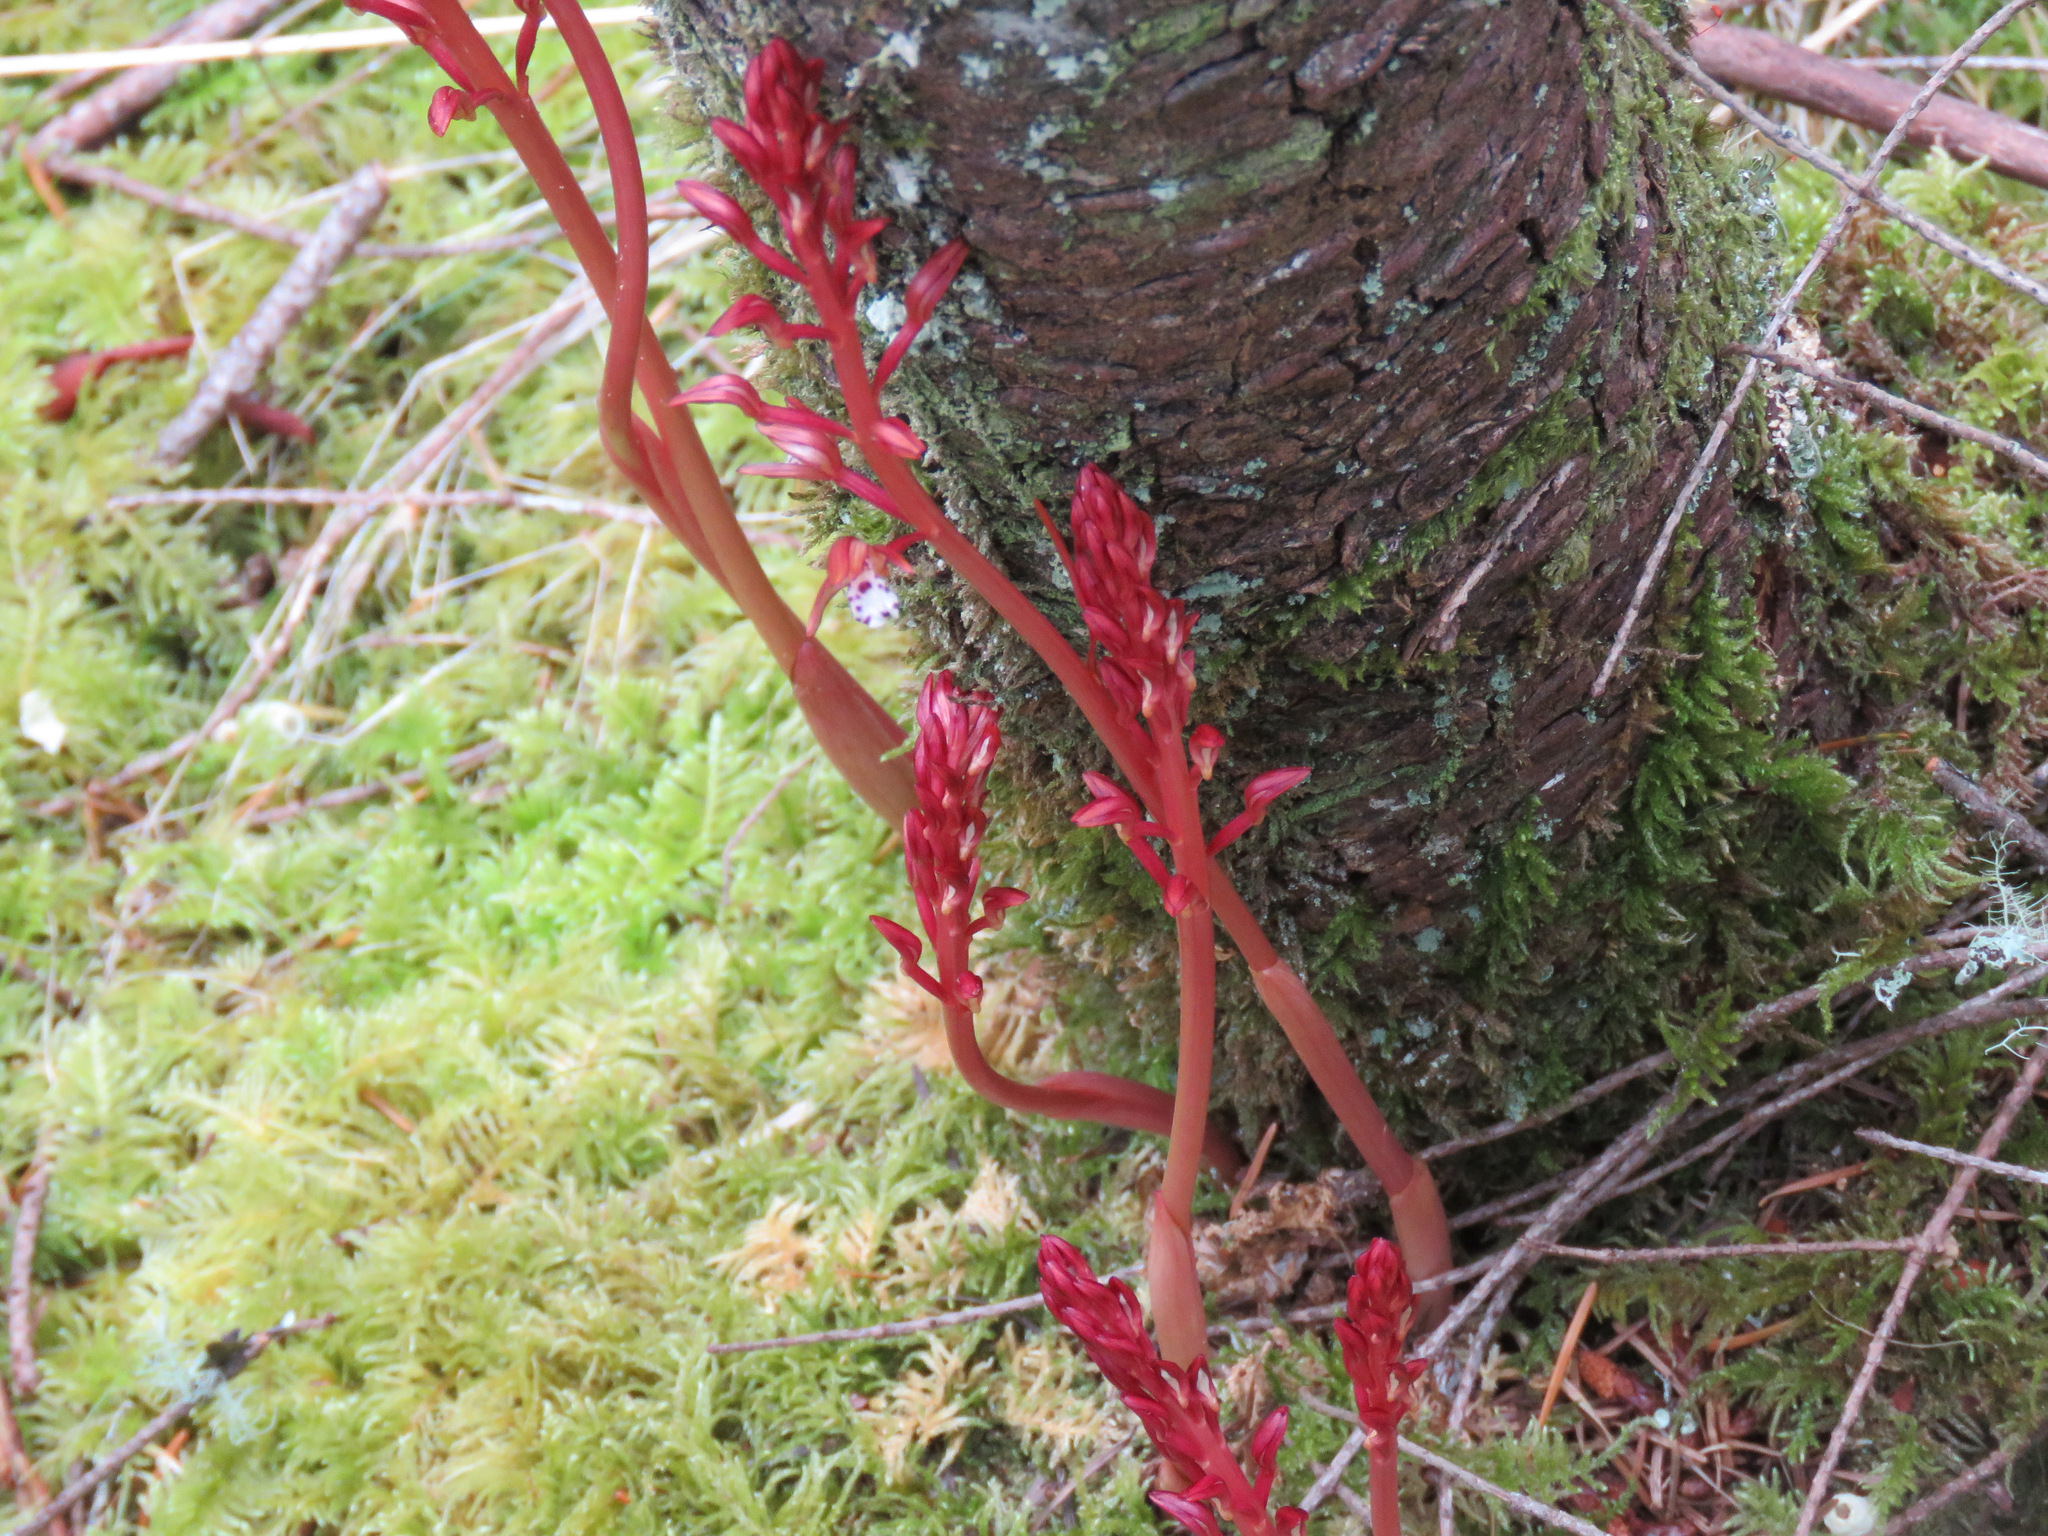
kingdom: Plantae
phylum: Tracheophyta
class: Liliopsida
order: Asparagales
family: Orchidaceae
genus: Corallorhiza
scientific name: Corallorhiza maculata
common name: Spotted coralroot
